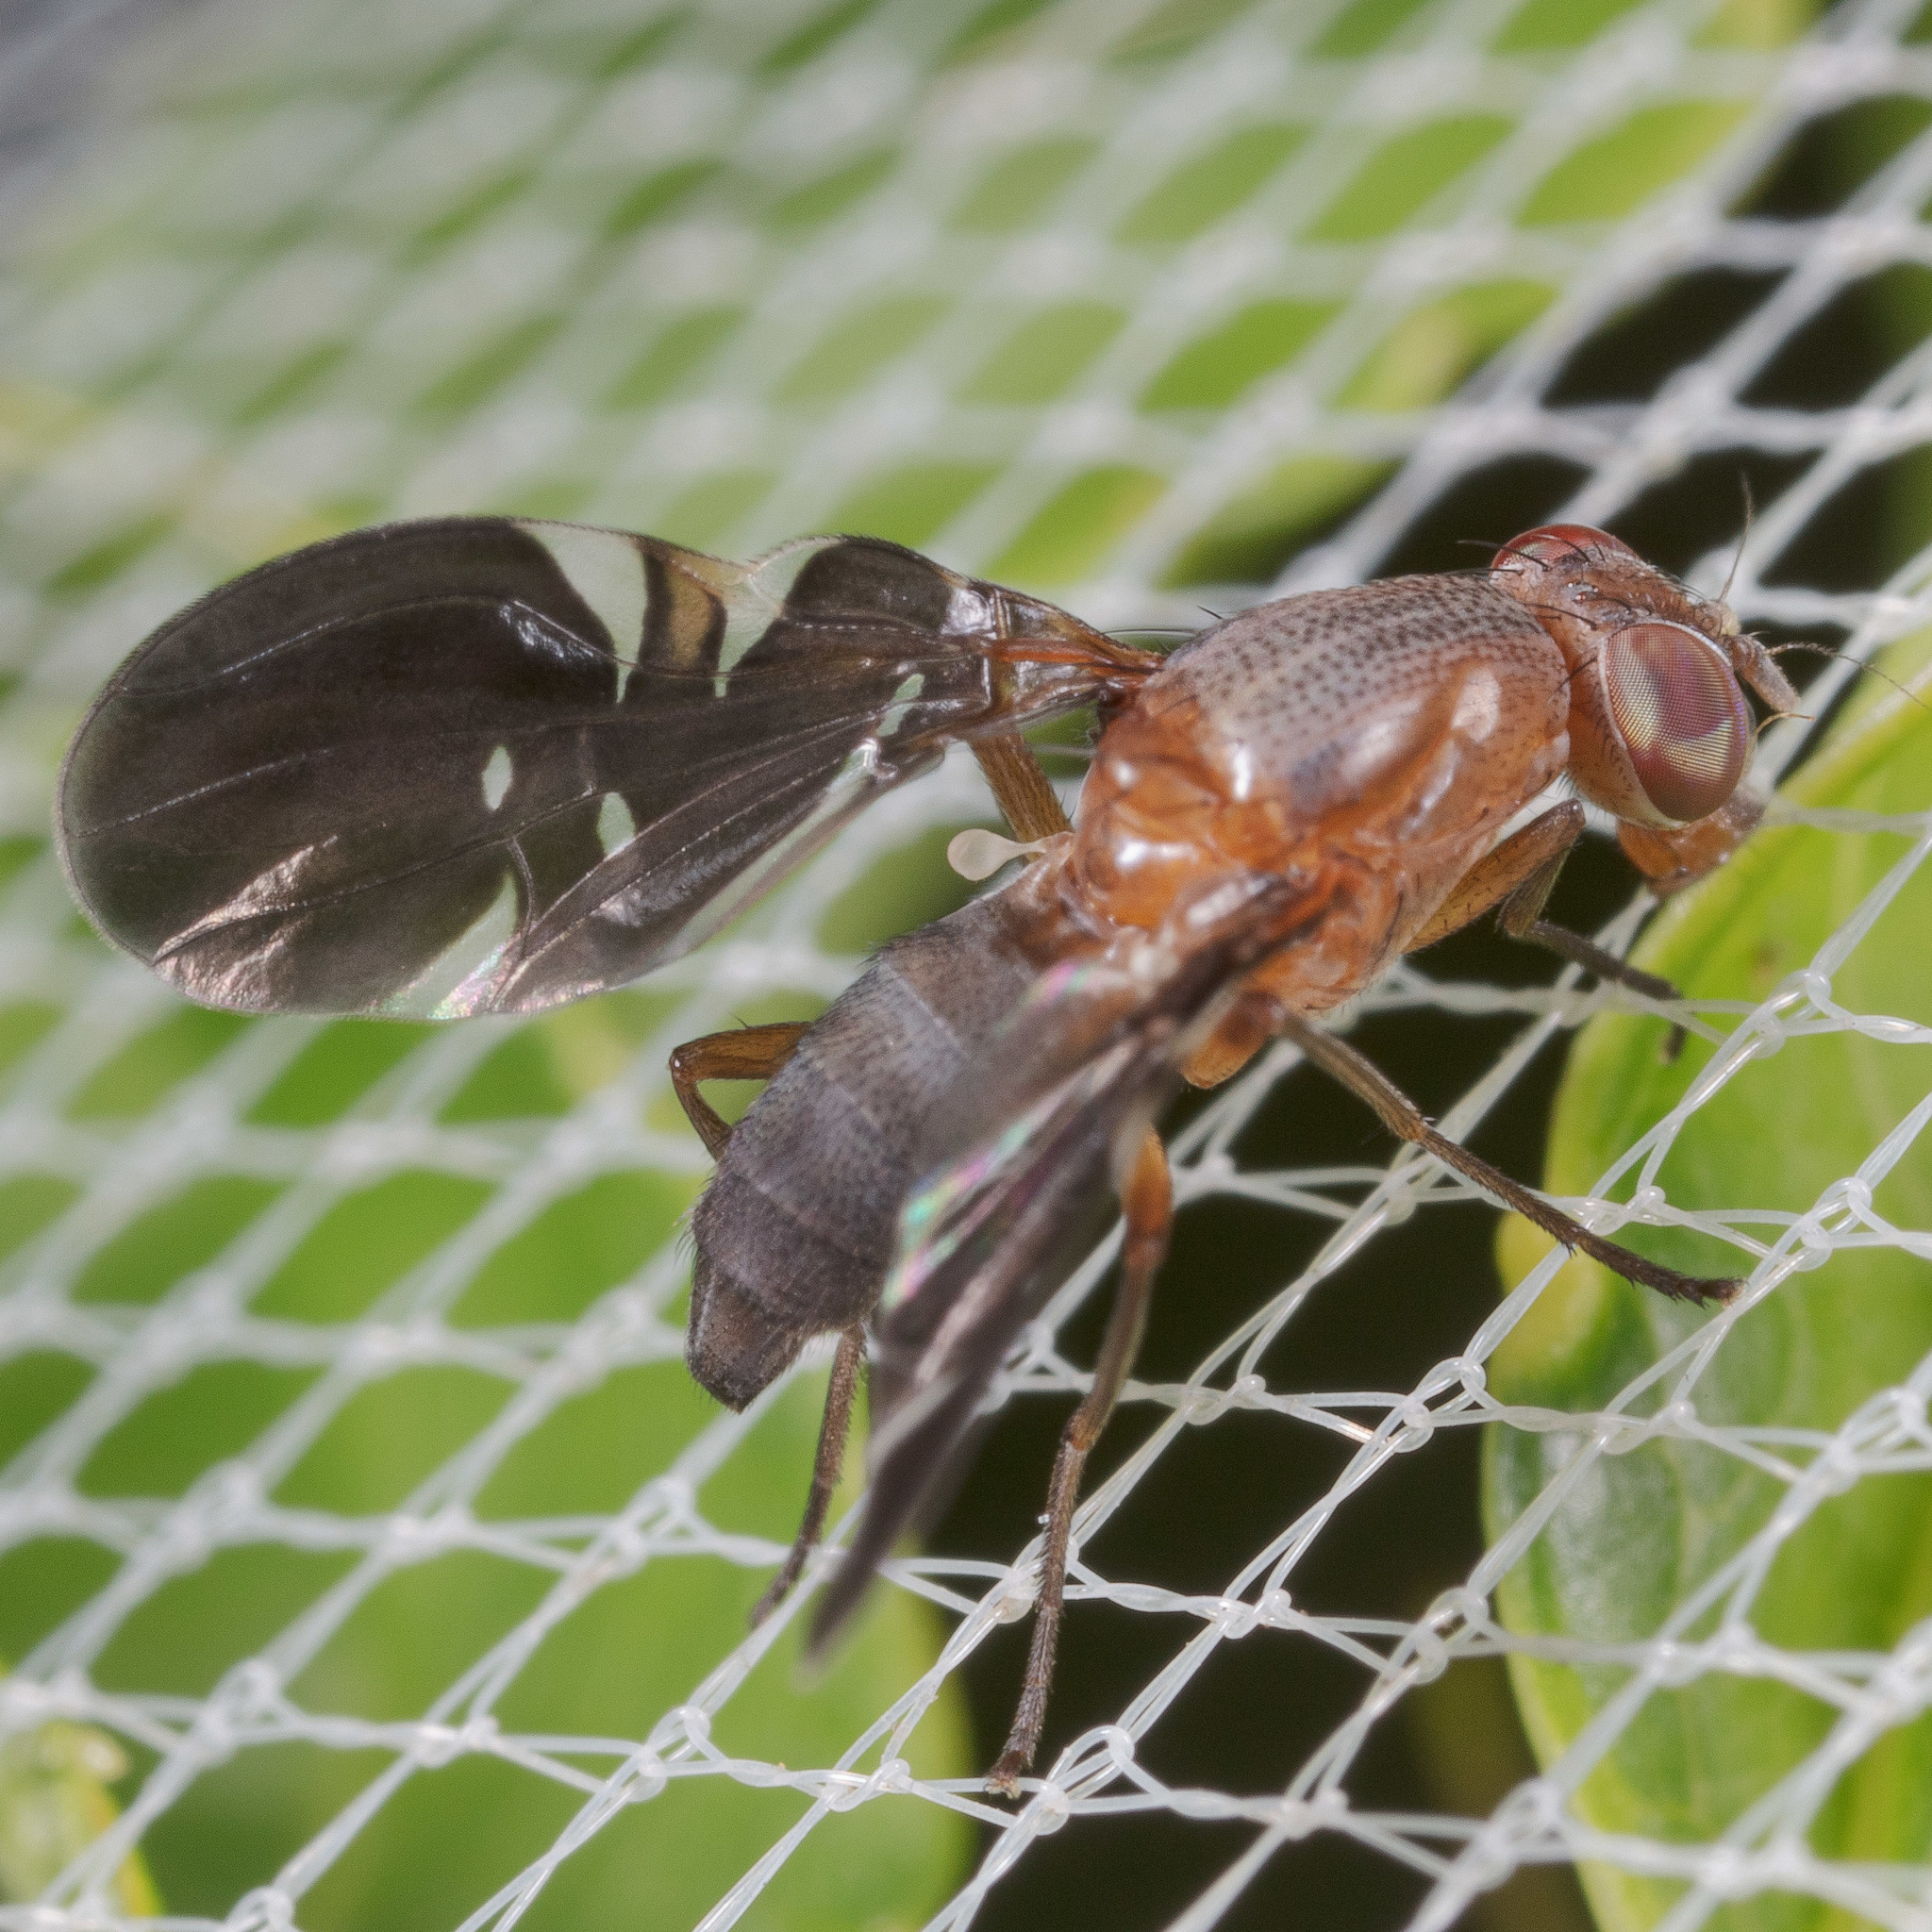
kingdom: Animalia
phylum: Arthropoda
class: Insecta
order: Diptera
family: Ulidiidae
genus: Delphinia
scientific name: Delphinia picta
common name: Common picture-winged fly
